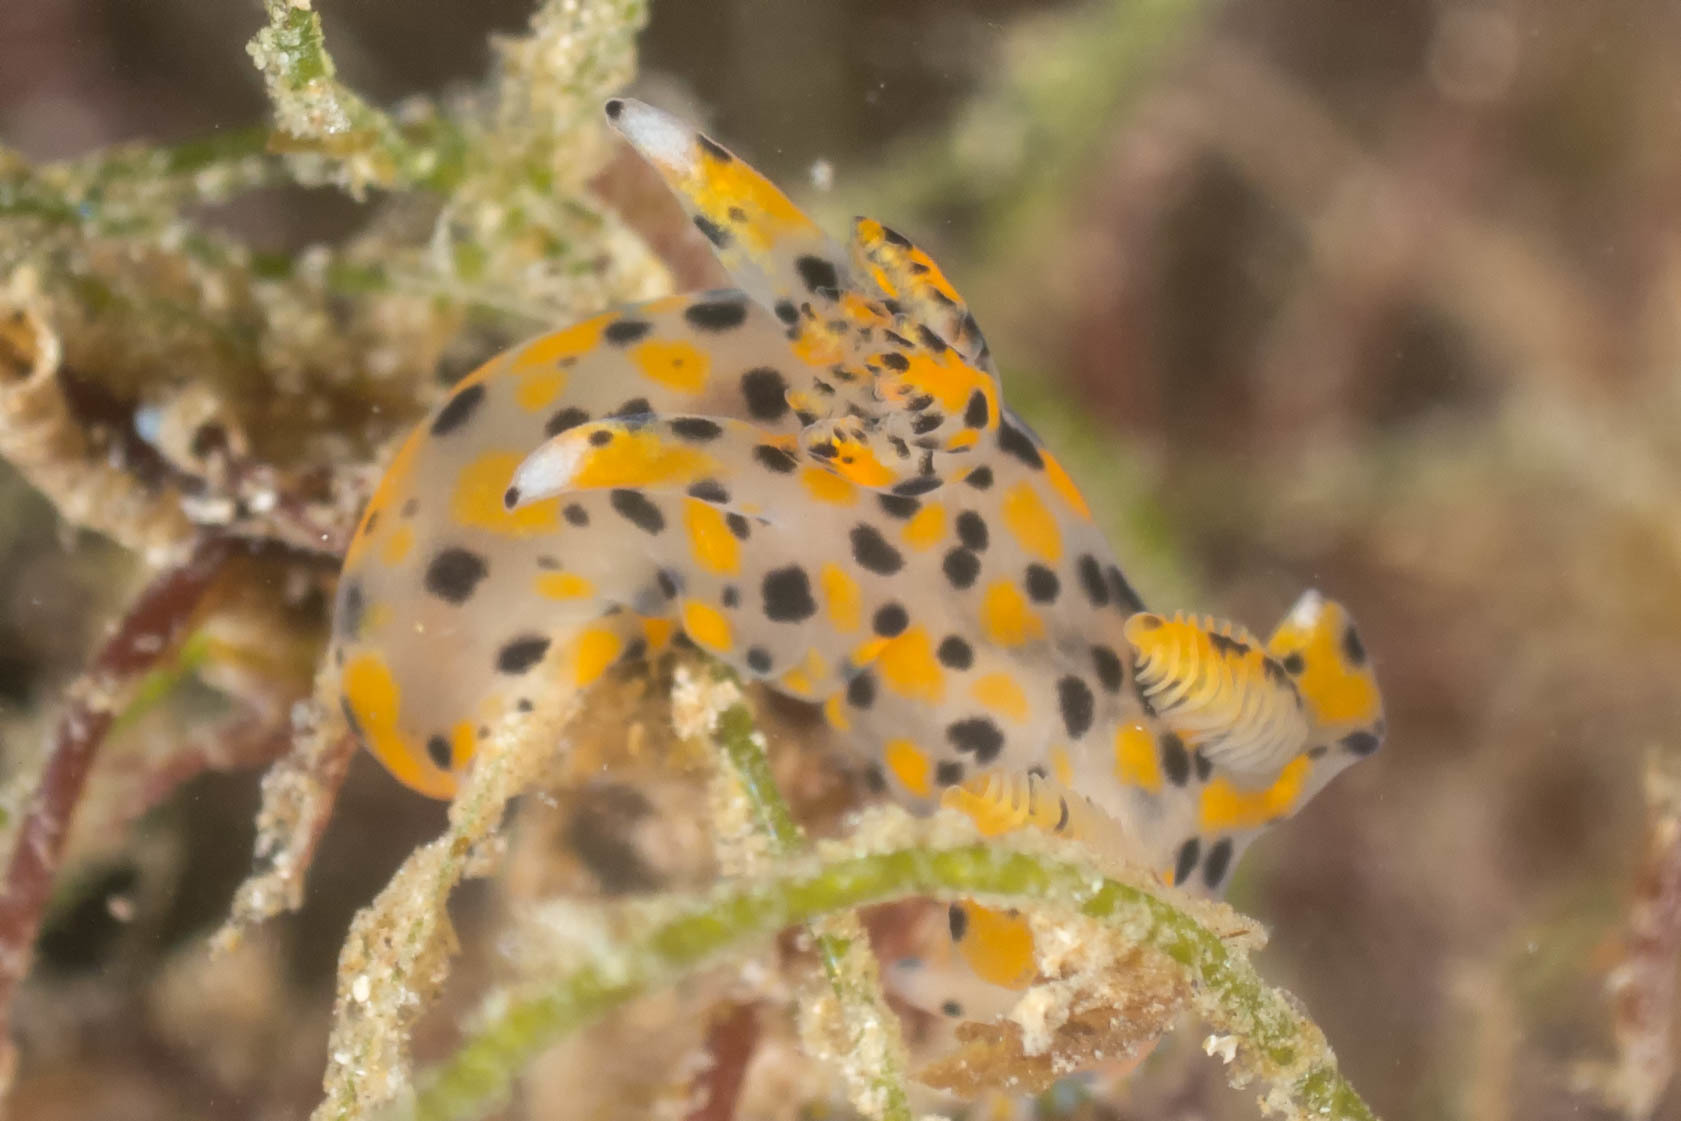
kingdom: Animalia
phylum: Mollusca
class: Gastropoda
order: Nudibranchia
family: Polyceridae
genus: Thecacera
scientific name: Thecacera pennigera
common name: Thecacera
